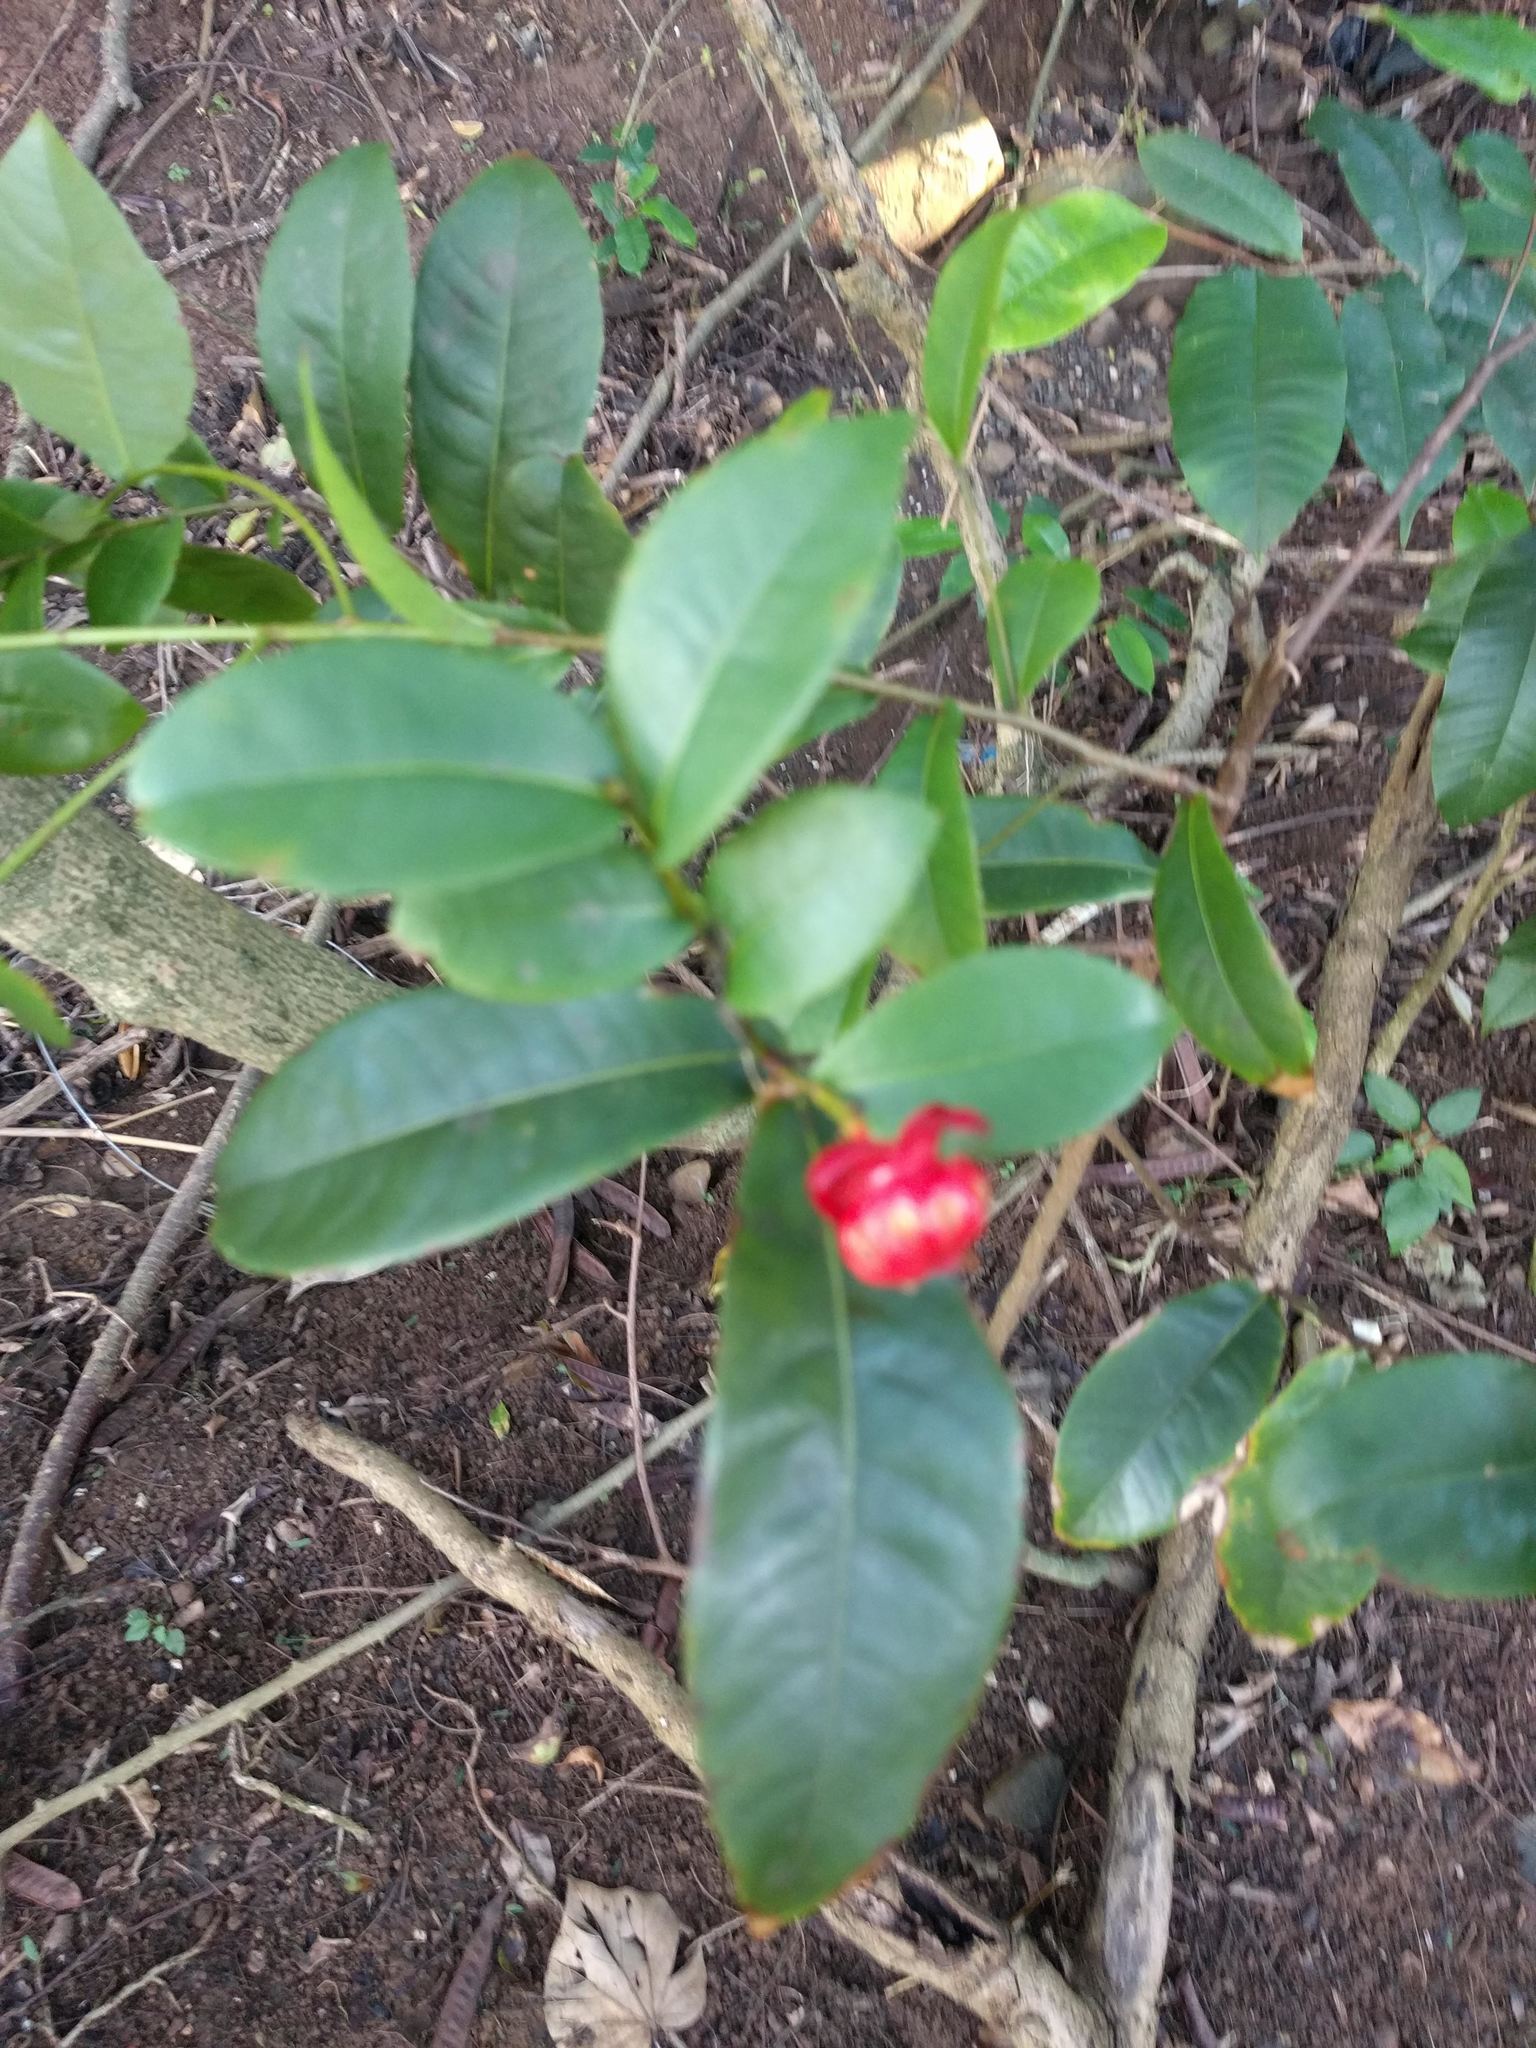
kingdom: Plantae
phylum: Tracheophyta
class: Magnoliopsida
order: Malpighiales
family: Ochnaceae
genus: Ochna
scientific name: Ochna thomasiana
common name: Thomas' bird's-eye bush
